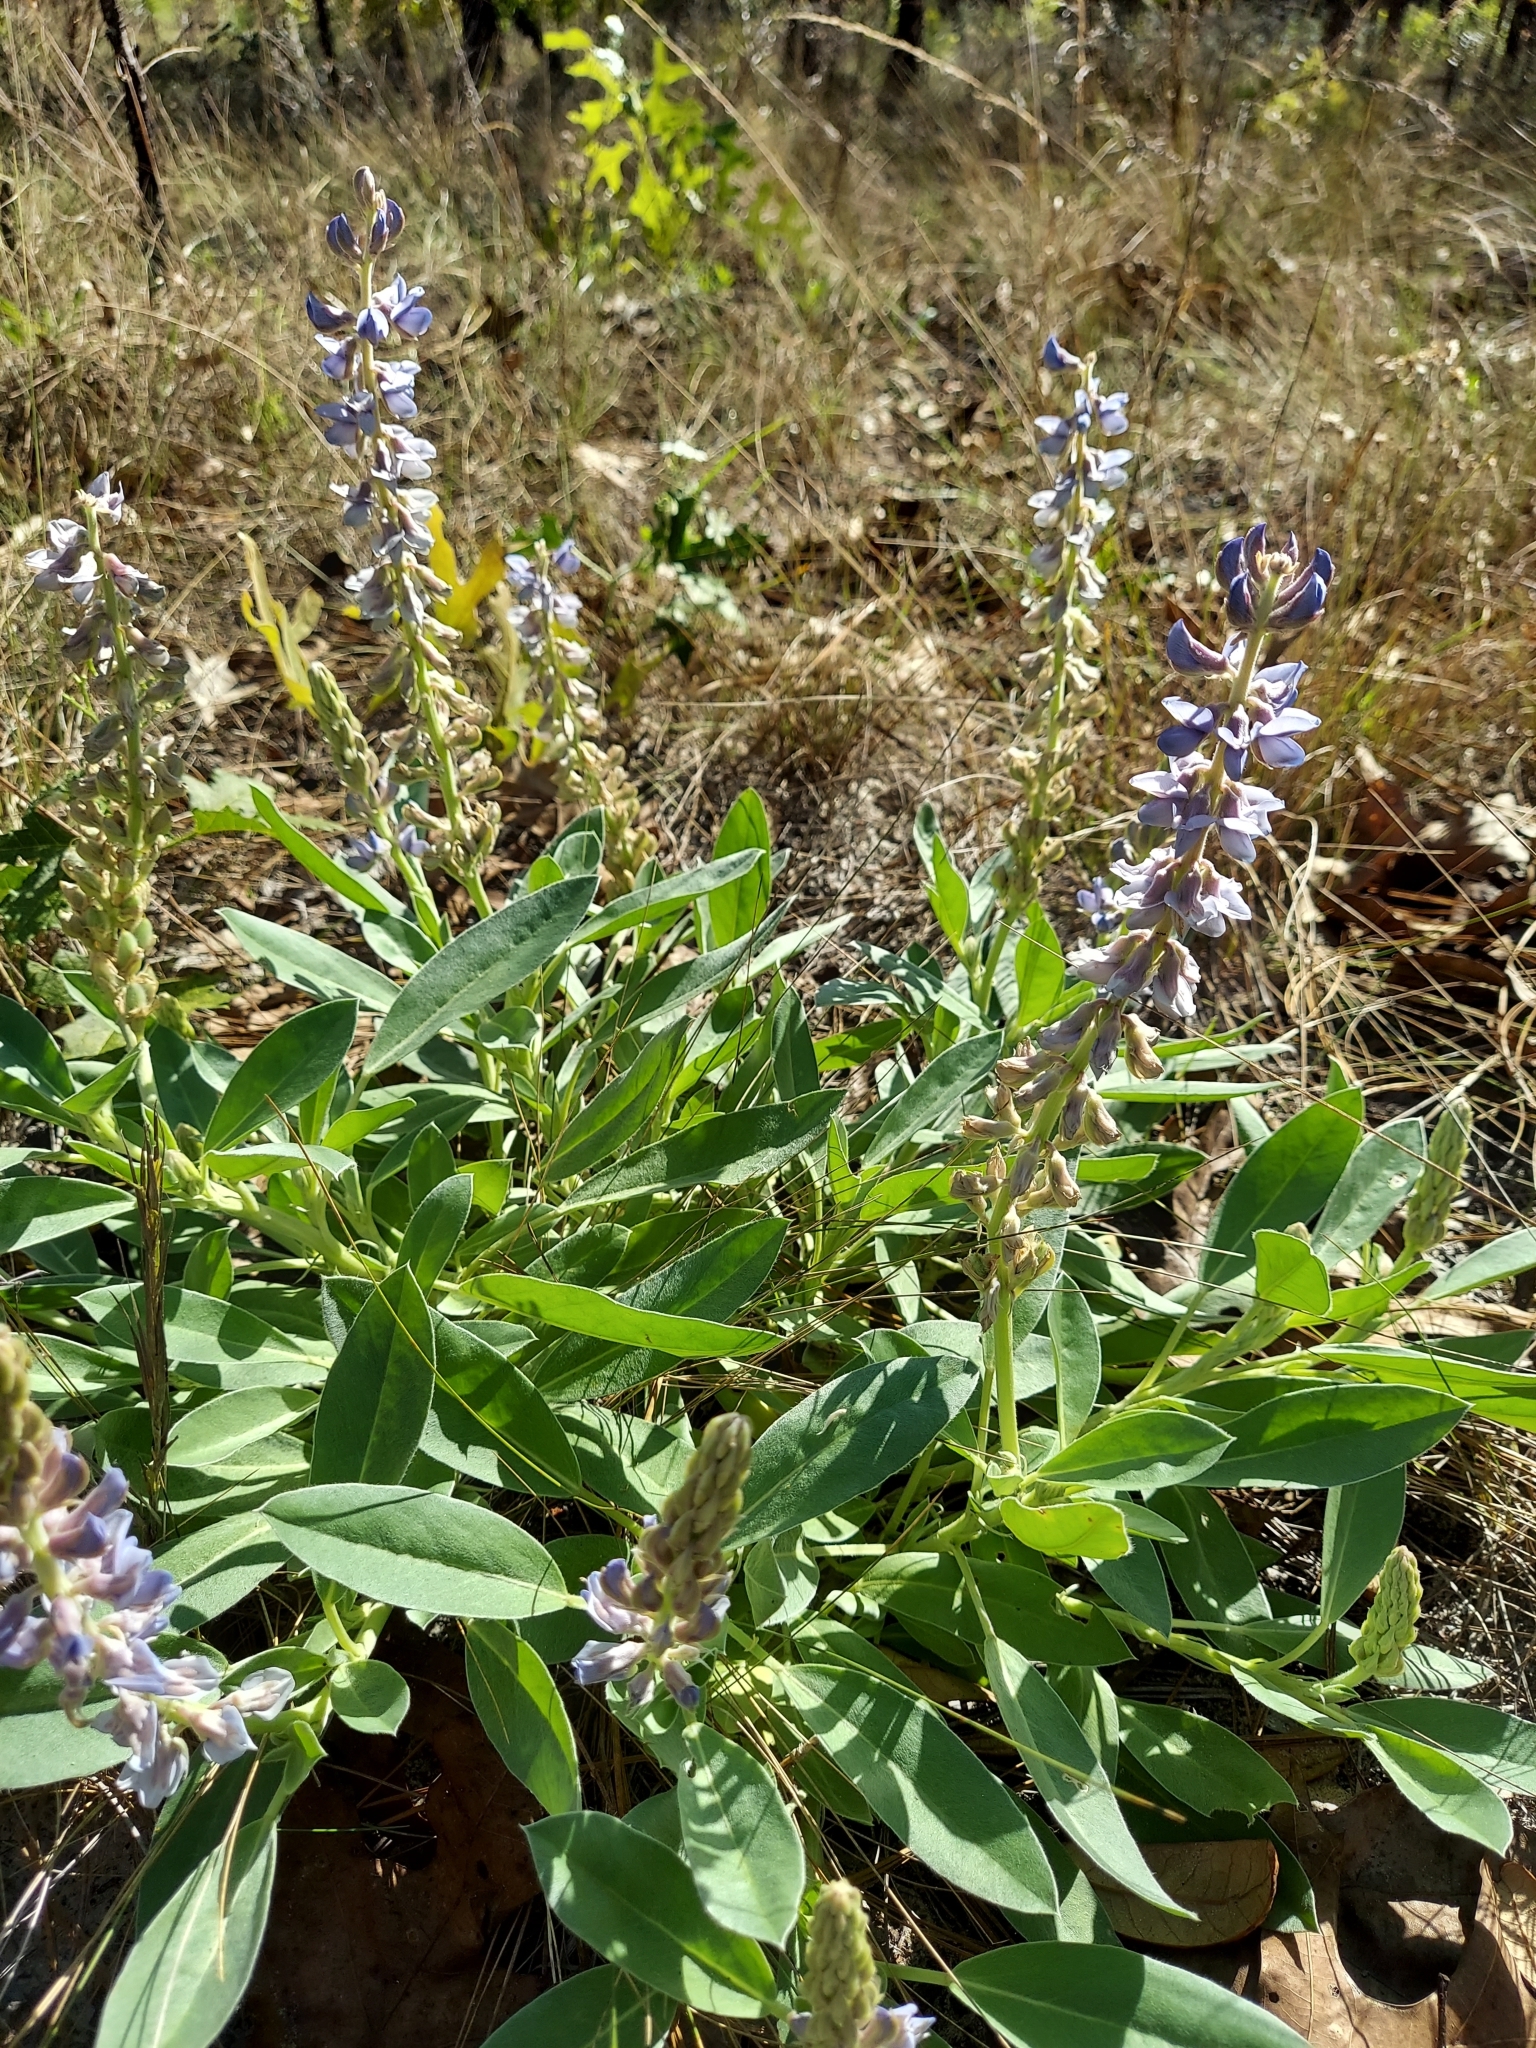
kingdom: Plantae
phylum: Tracheophyta
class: Magnoliopsida
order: Fabales
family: Fabaceae
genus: Lupinus
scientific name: Lupinus
